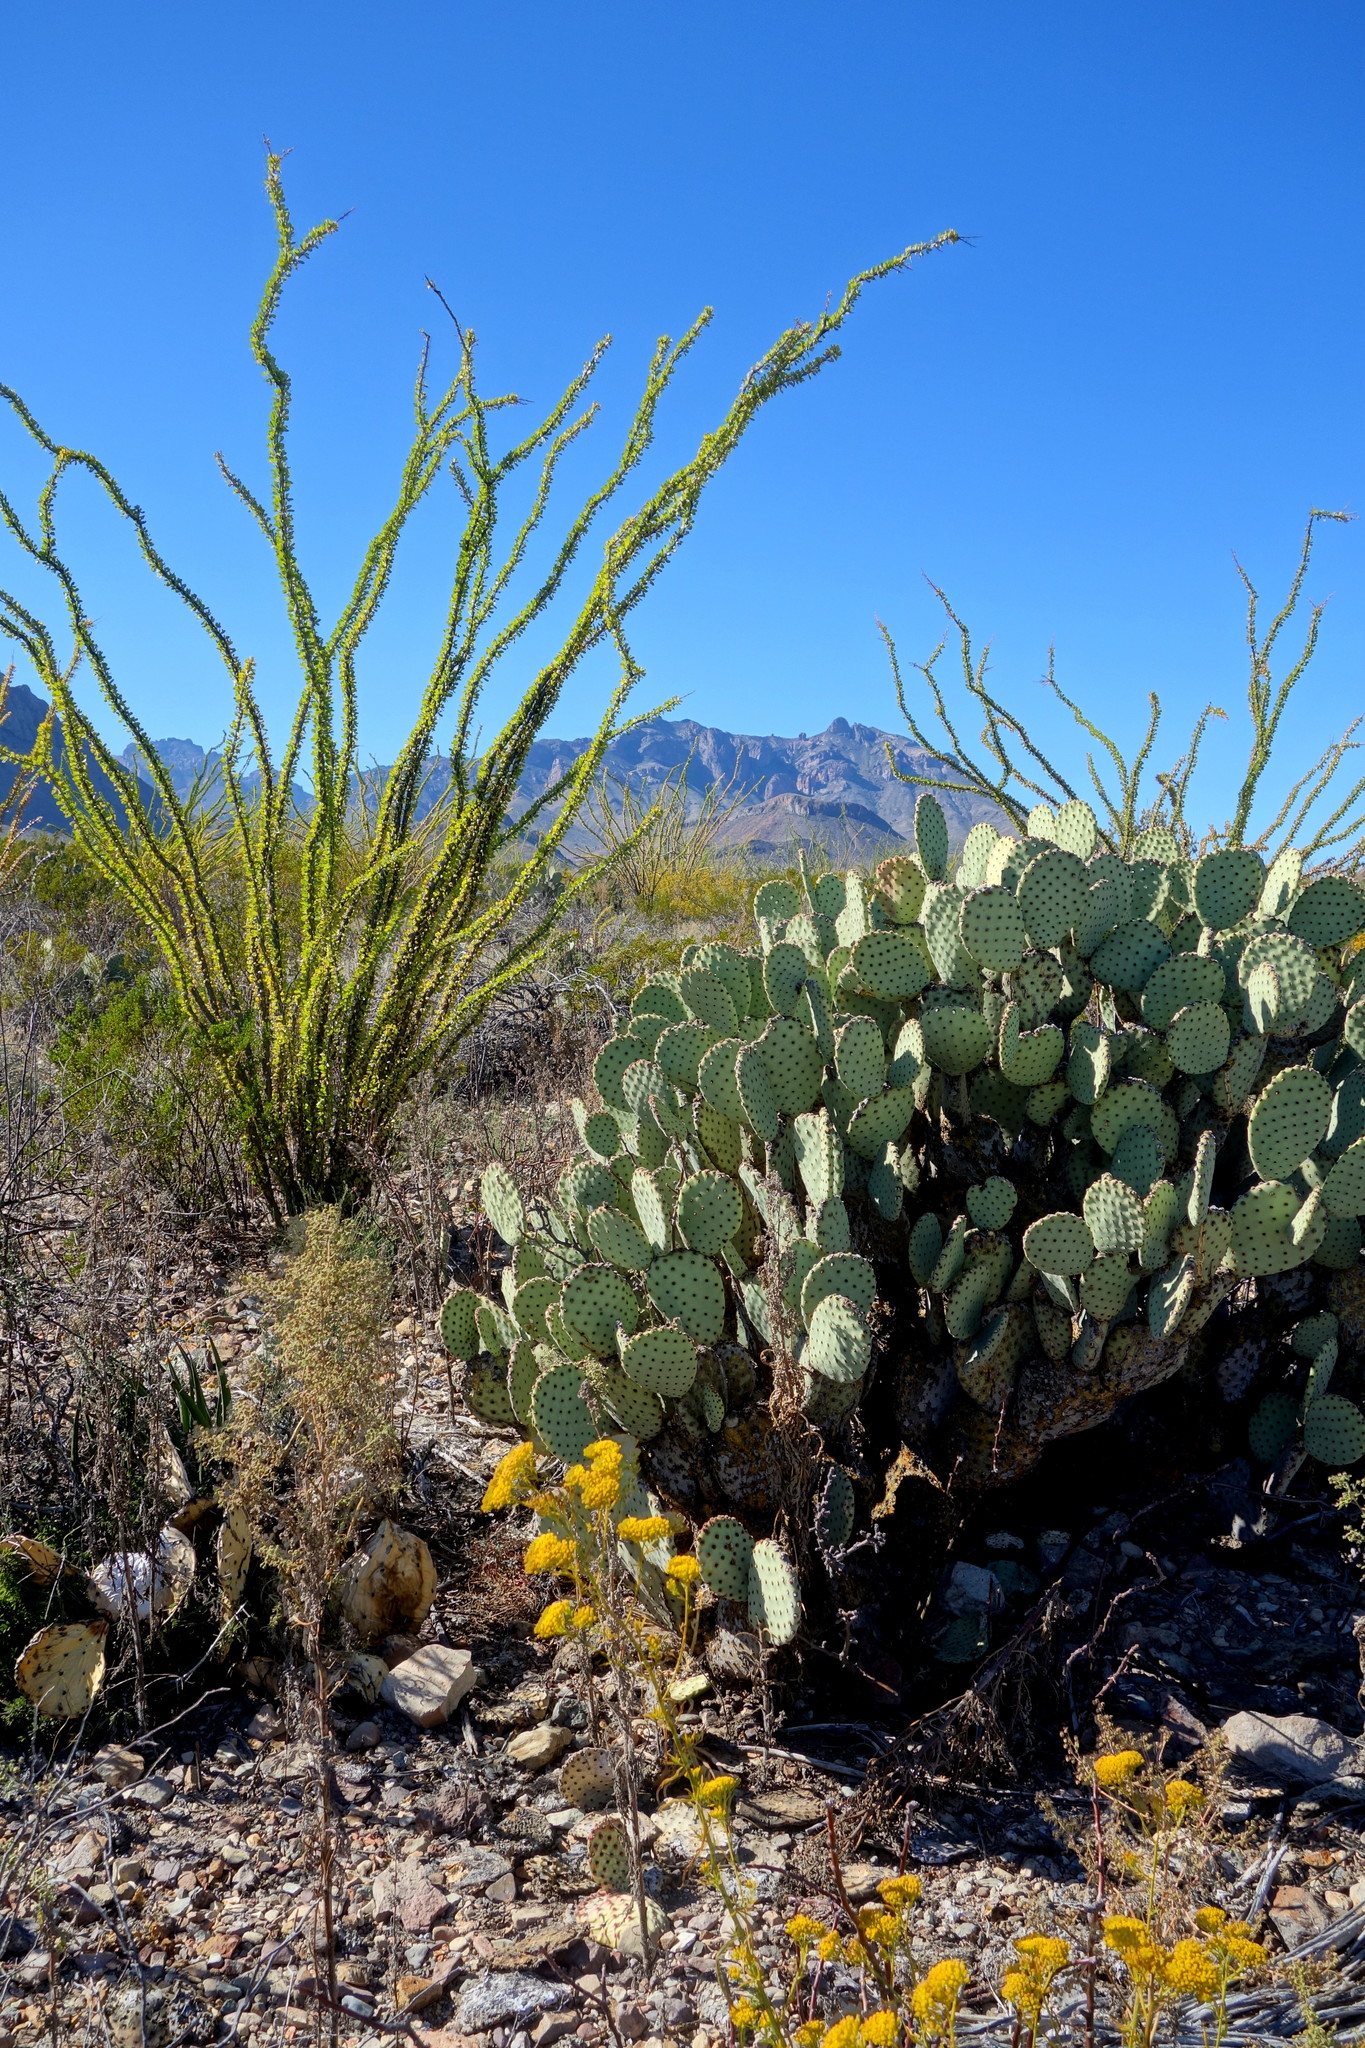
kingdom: Plantae
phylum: Tracheophyta
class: Magnoliopsida
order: Caryophyllales
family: Cactaceae
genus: Opuntia
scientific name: Opuntia rufida
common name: Blind pricklypear
